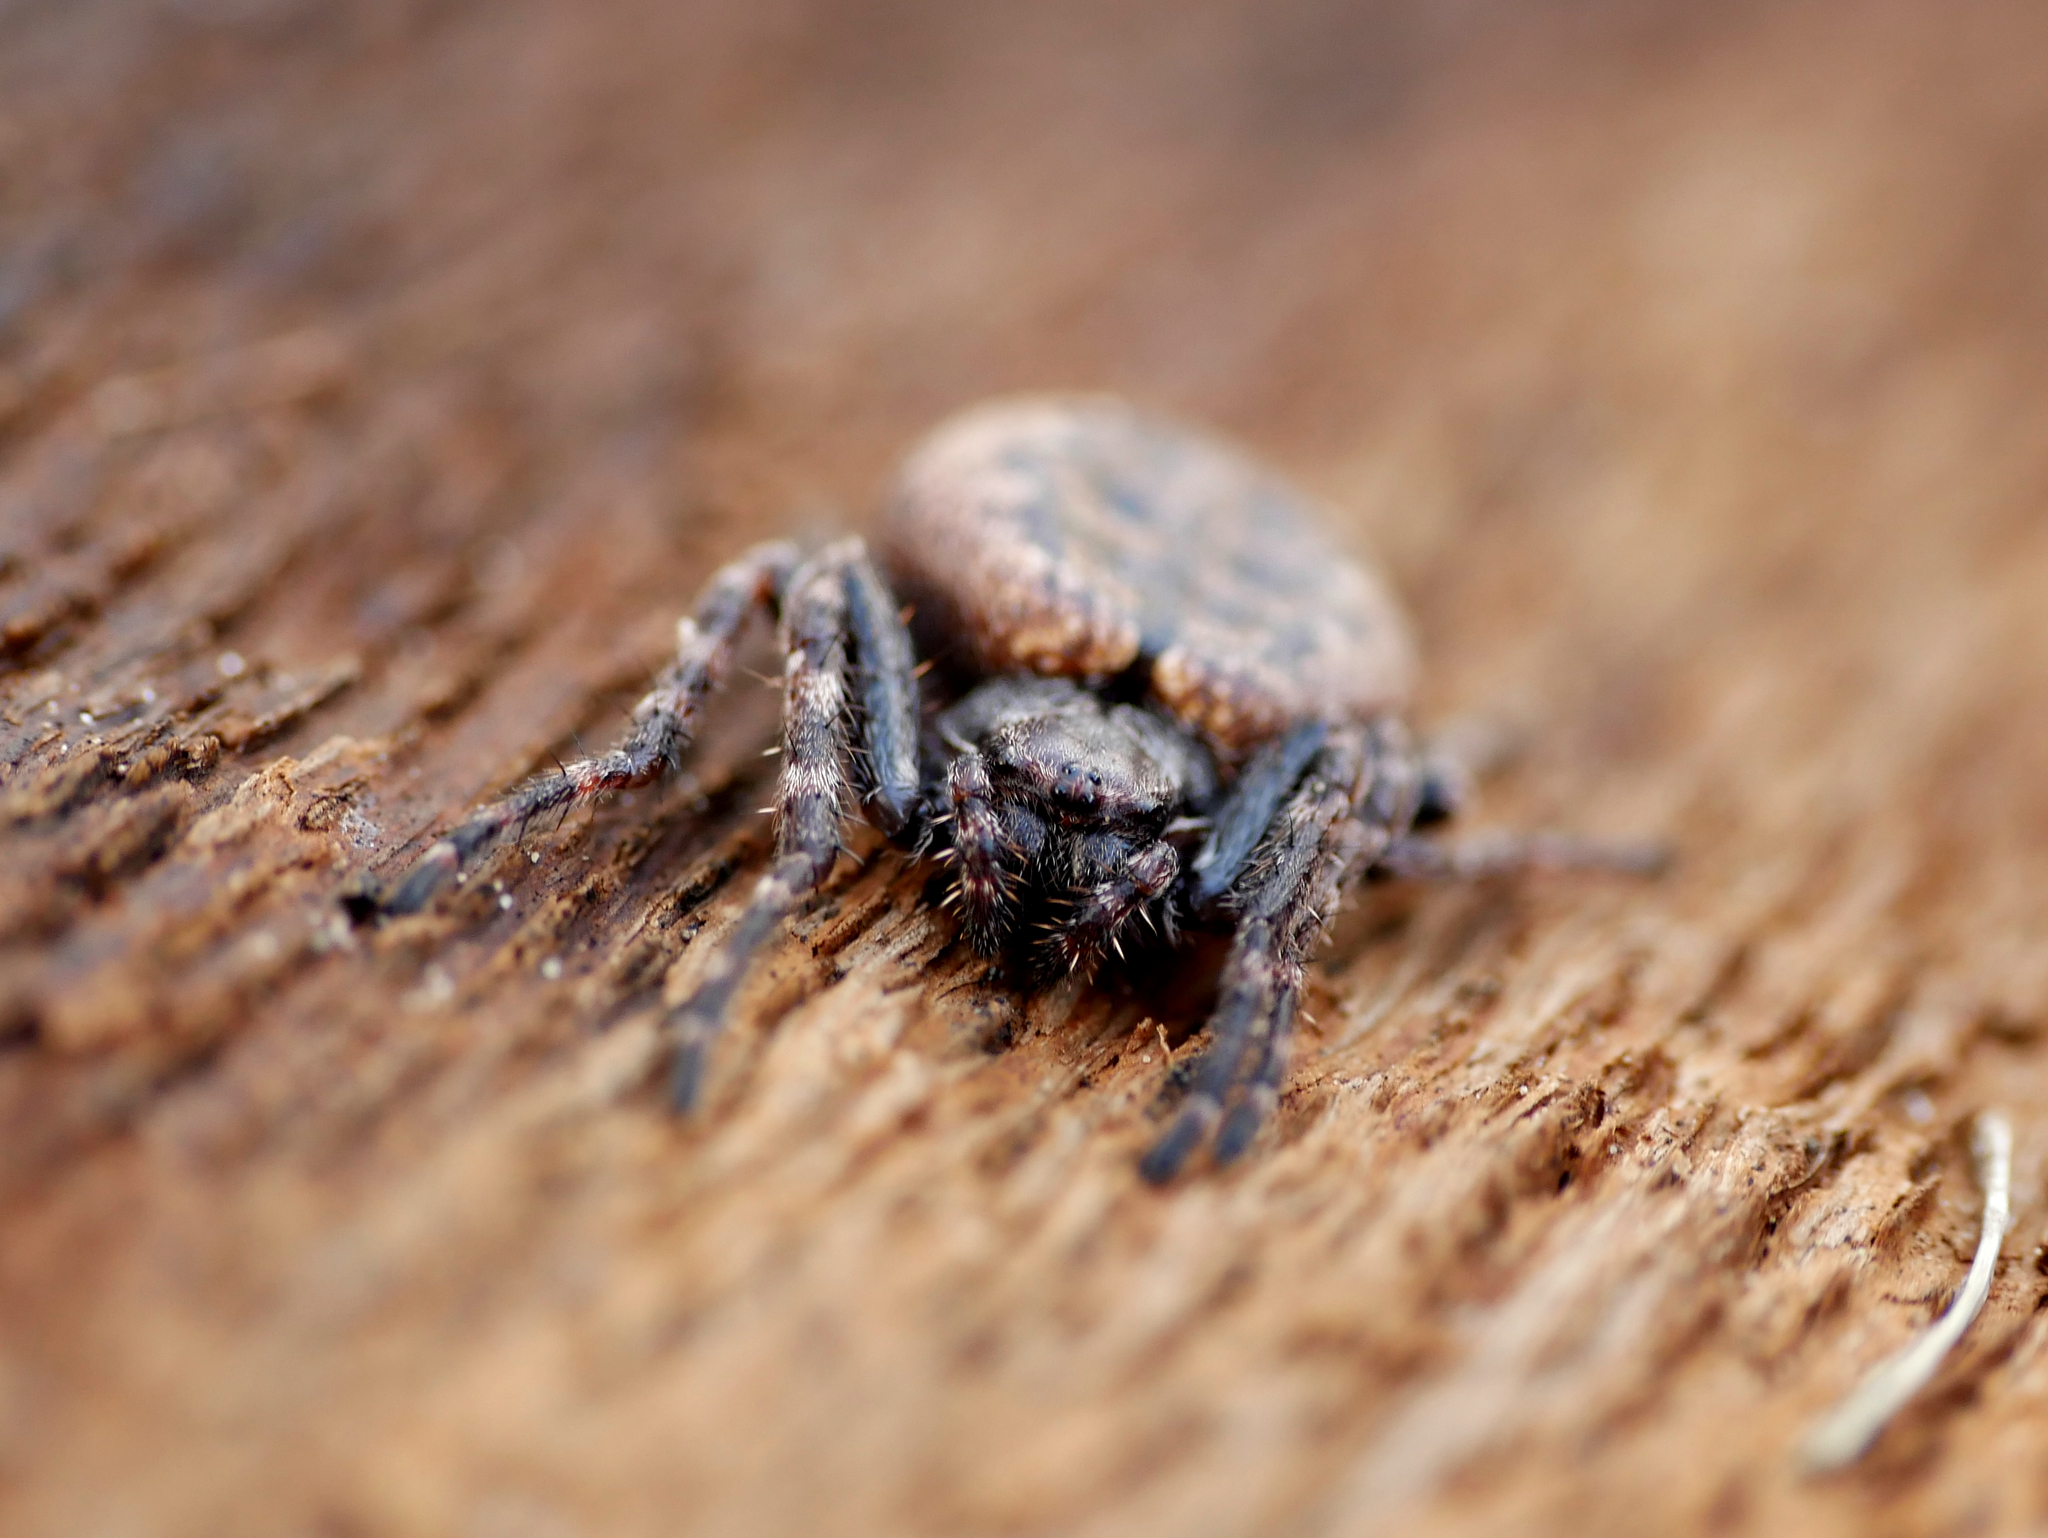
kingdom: Animalia
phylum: Arthropoda
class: Arachnida
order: Araneae
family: Araneidae
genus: Nuctenea
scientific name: Nuctenea umbratica
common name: Toad spider
